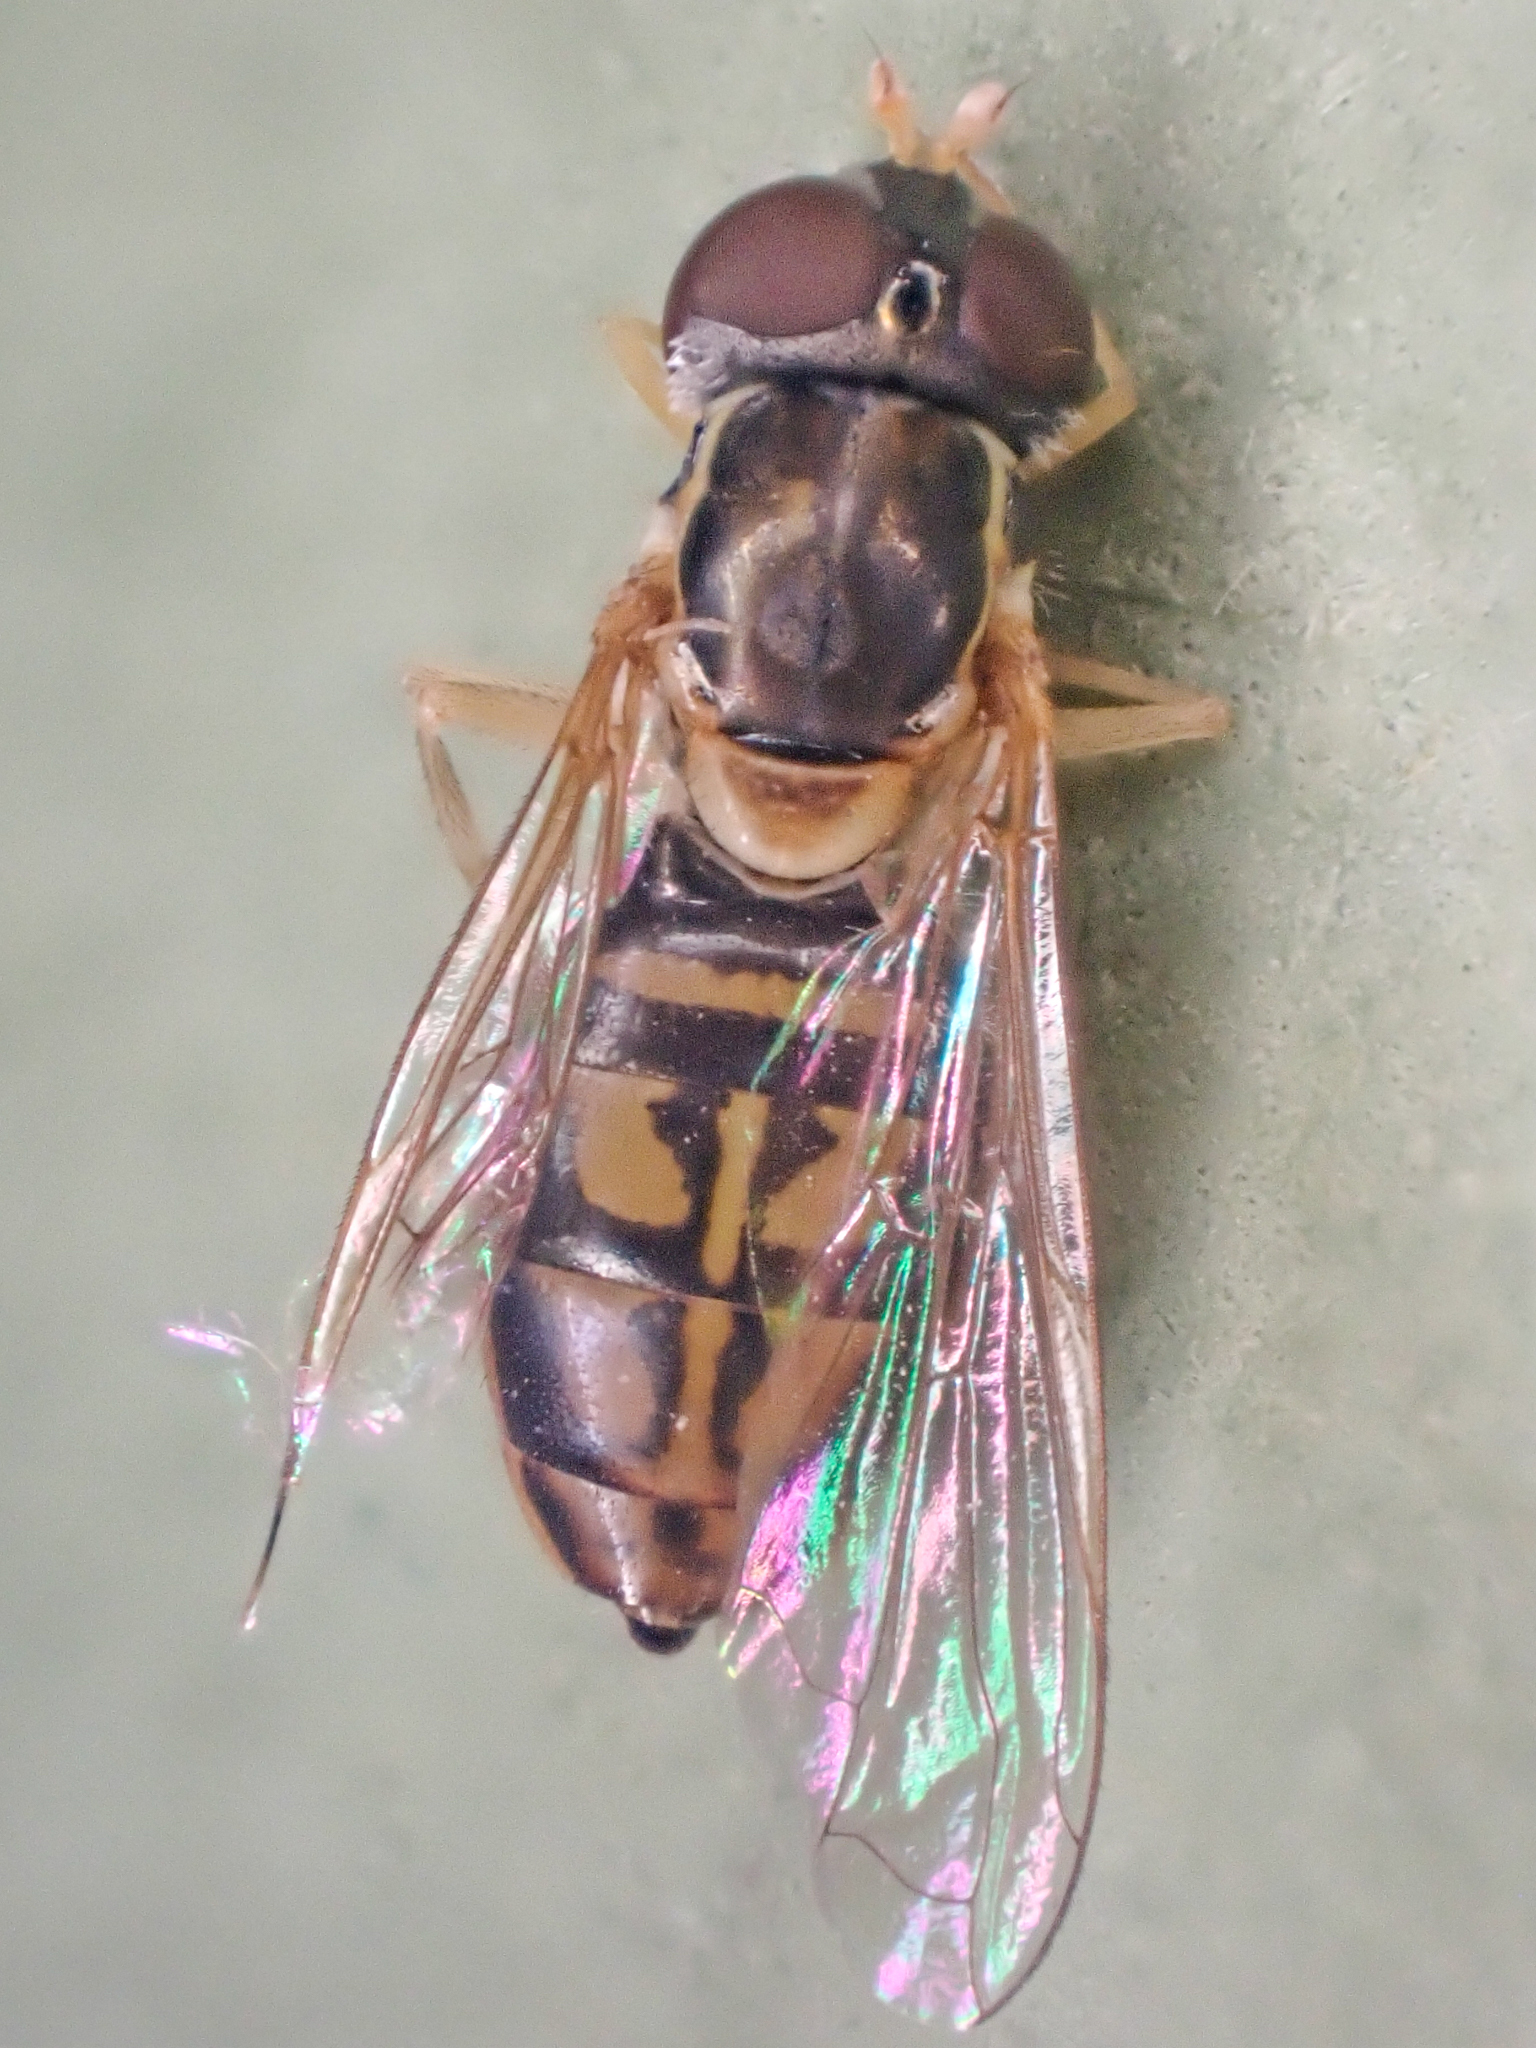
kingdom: Animalia
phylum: Arthropoda
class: Insecta
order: Diptera
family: Syrphidae
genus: Toxomerus
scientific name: Toxomerus marginatus
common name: Syrphid fly
